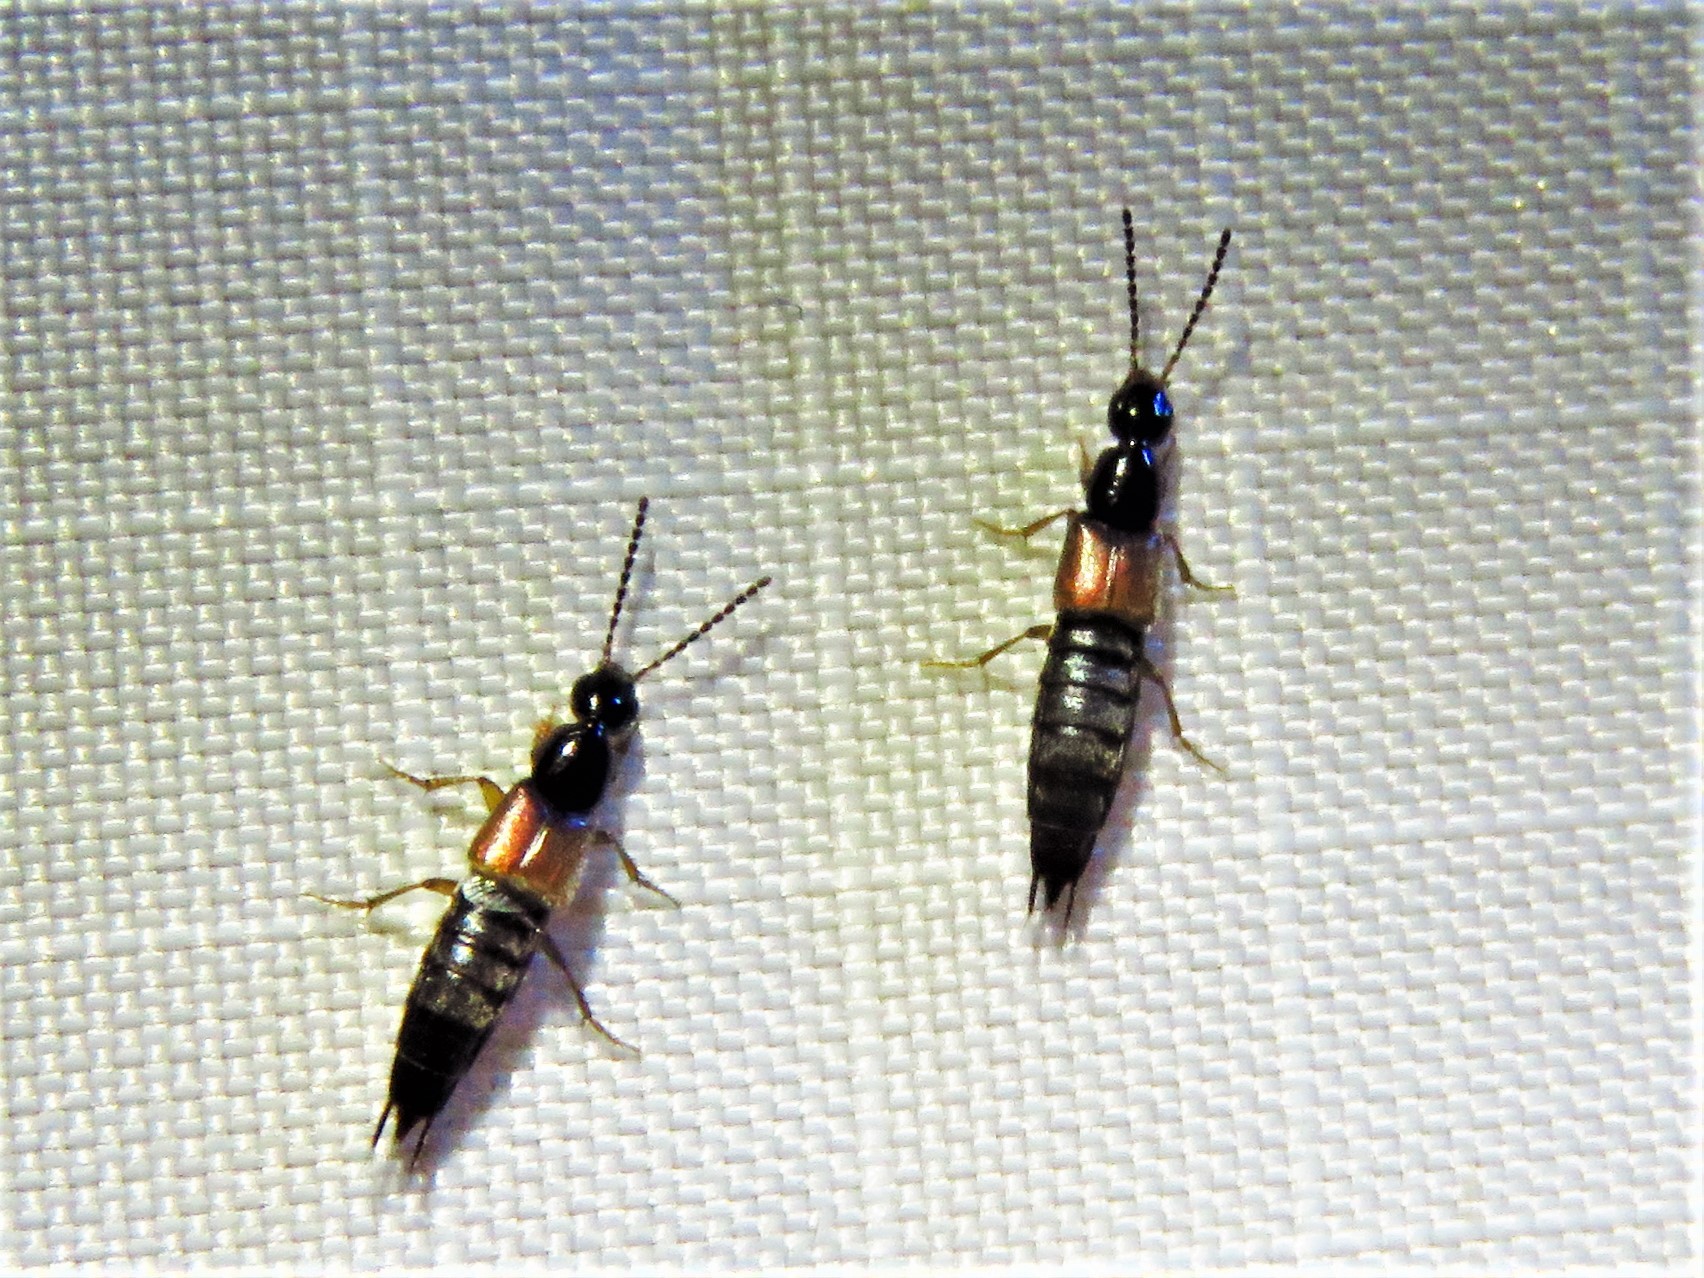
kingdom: Animalia
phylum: Arthropoda
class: Insecta
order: Coleoptera
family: Staphylinidae
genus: Philonthus
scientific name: Philonthus rufulus
